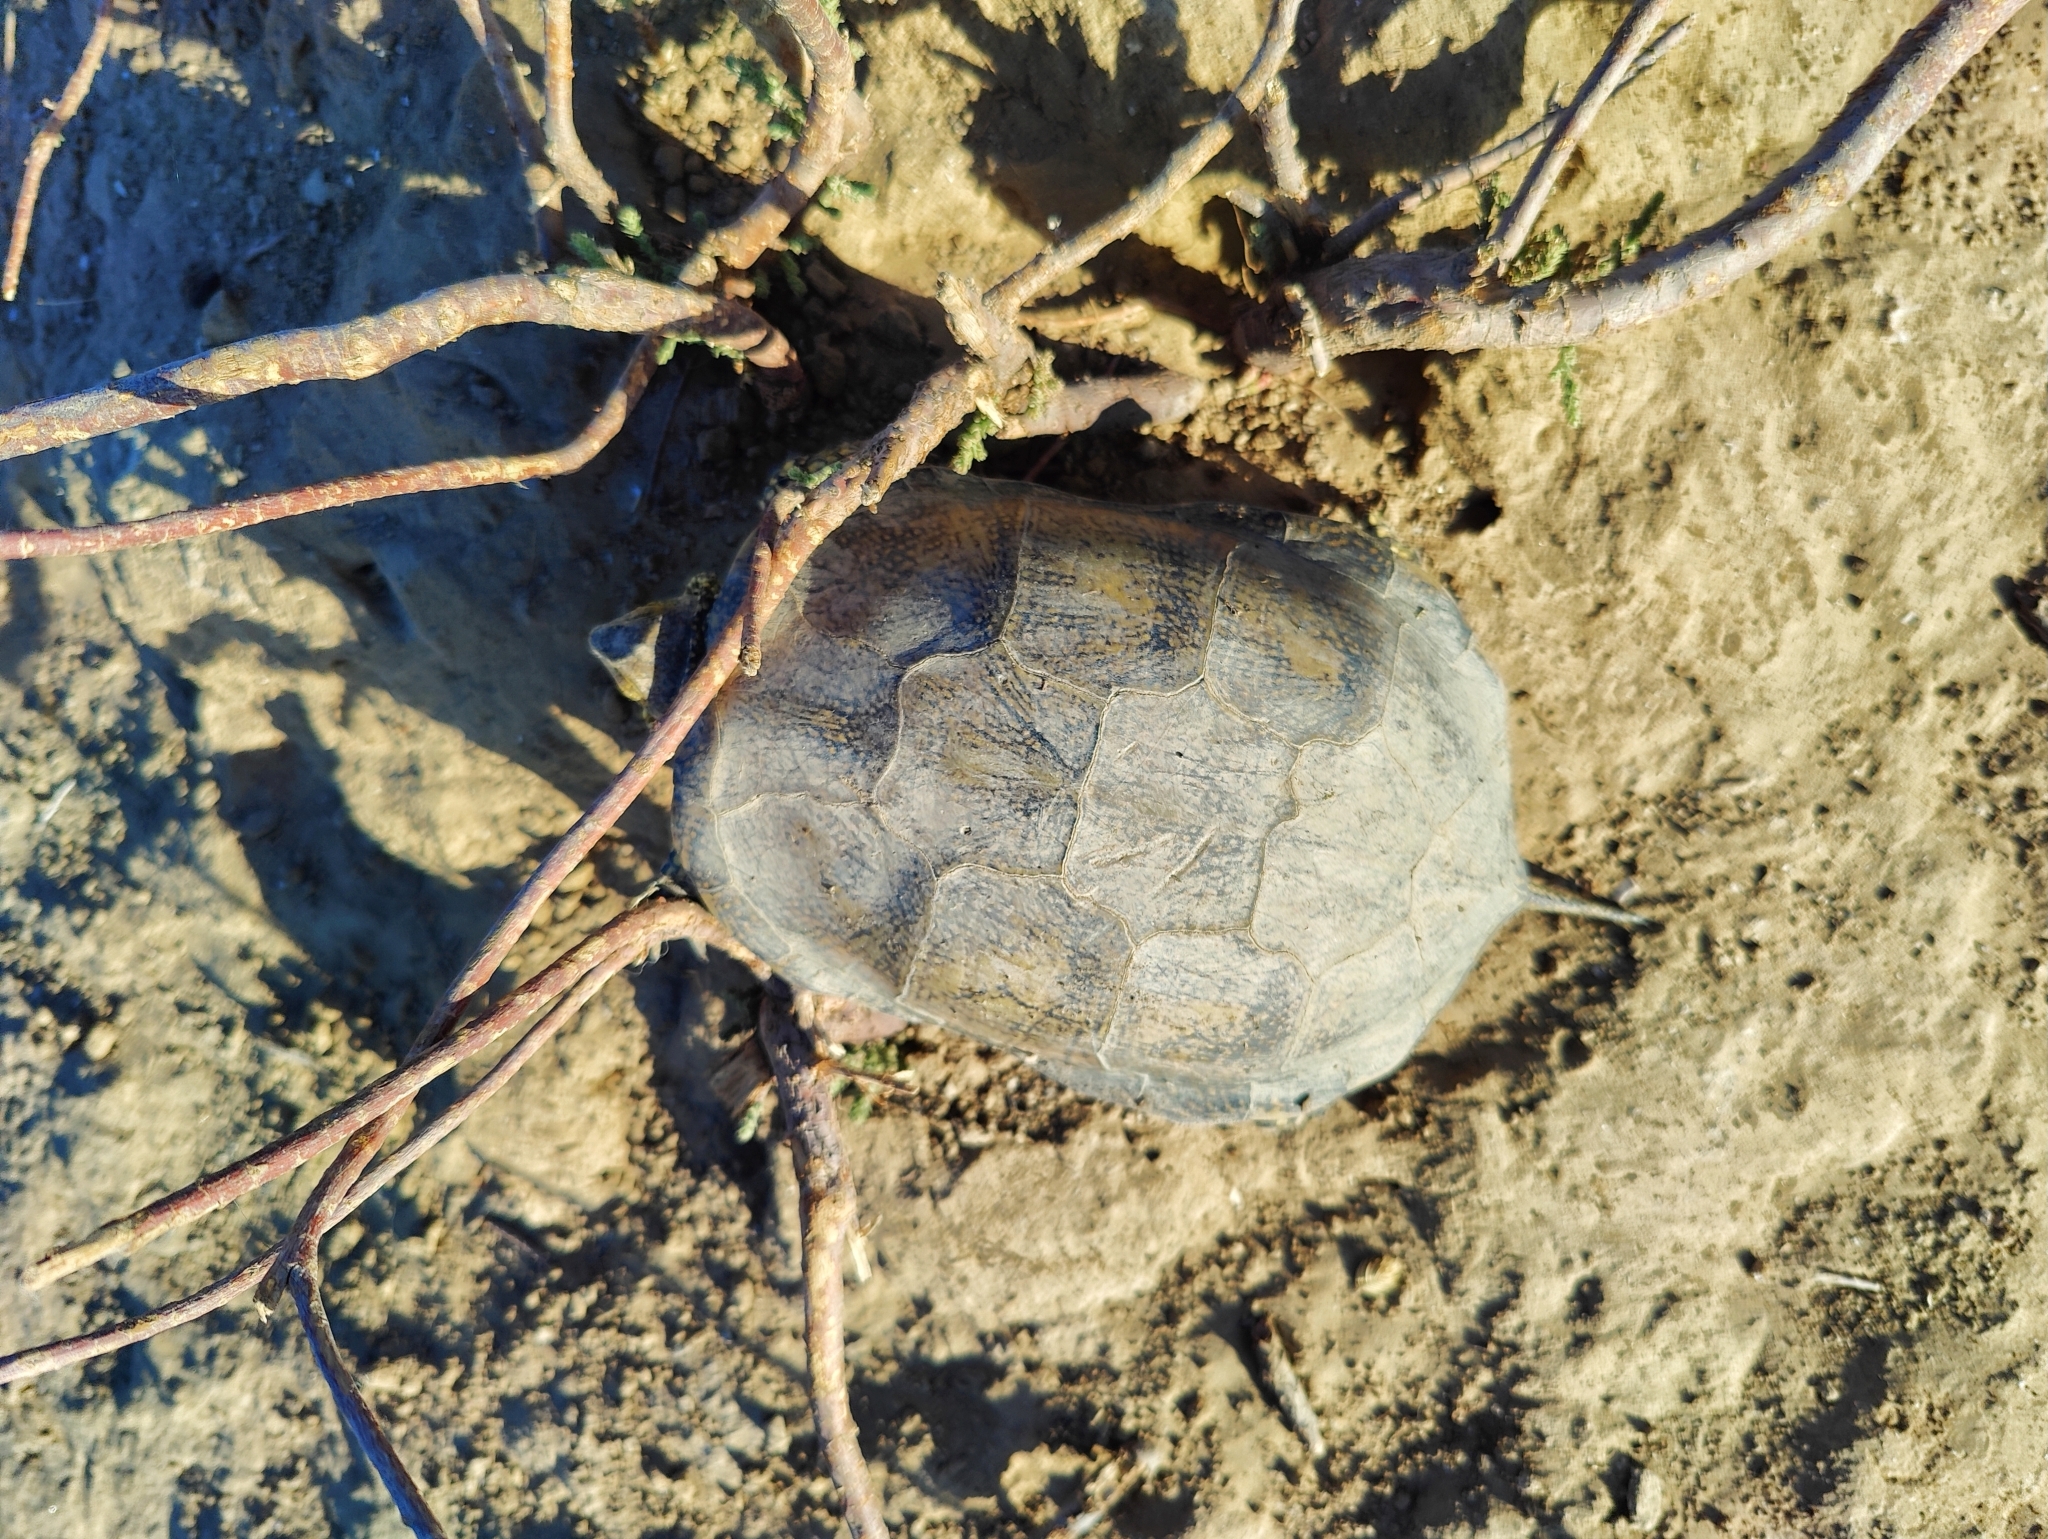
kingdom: Animalia
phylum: Chordata
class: Testudines
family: Emydidae
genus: Emys
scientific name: Emys orbicularis
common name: European pond turtle
